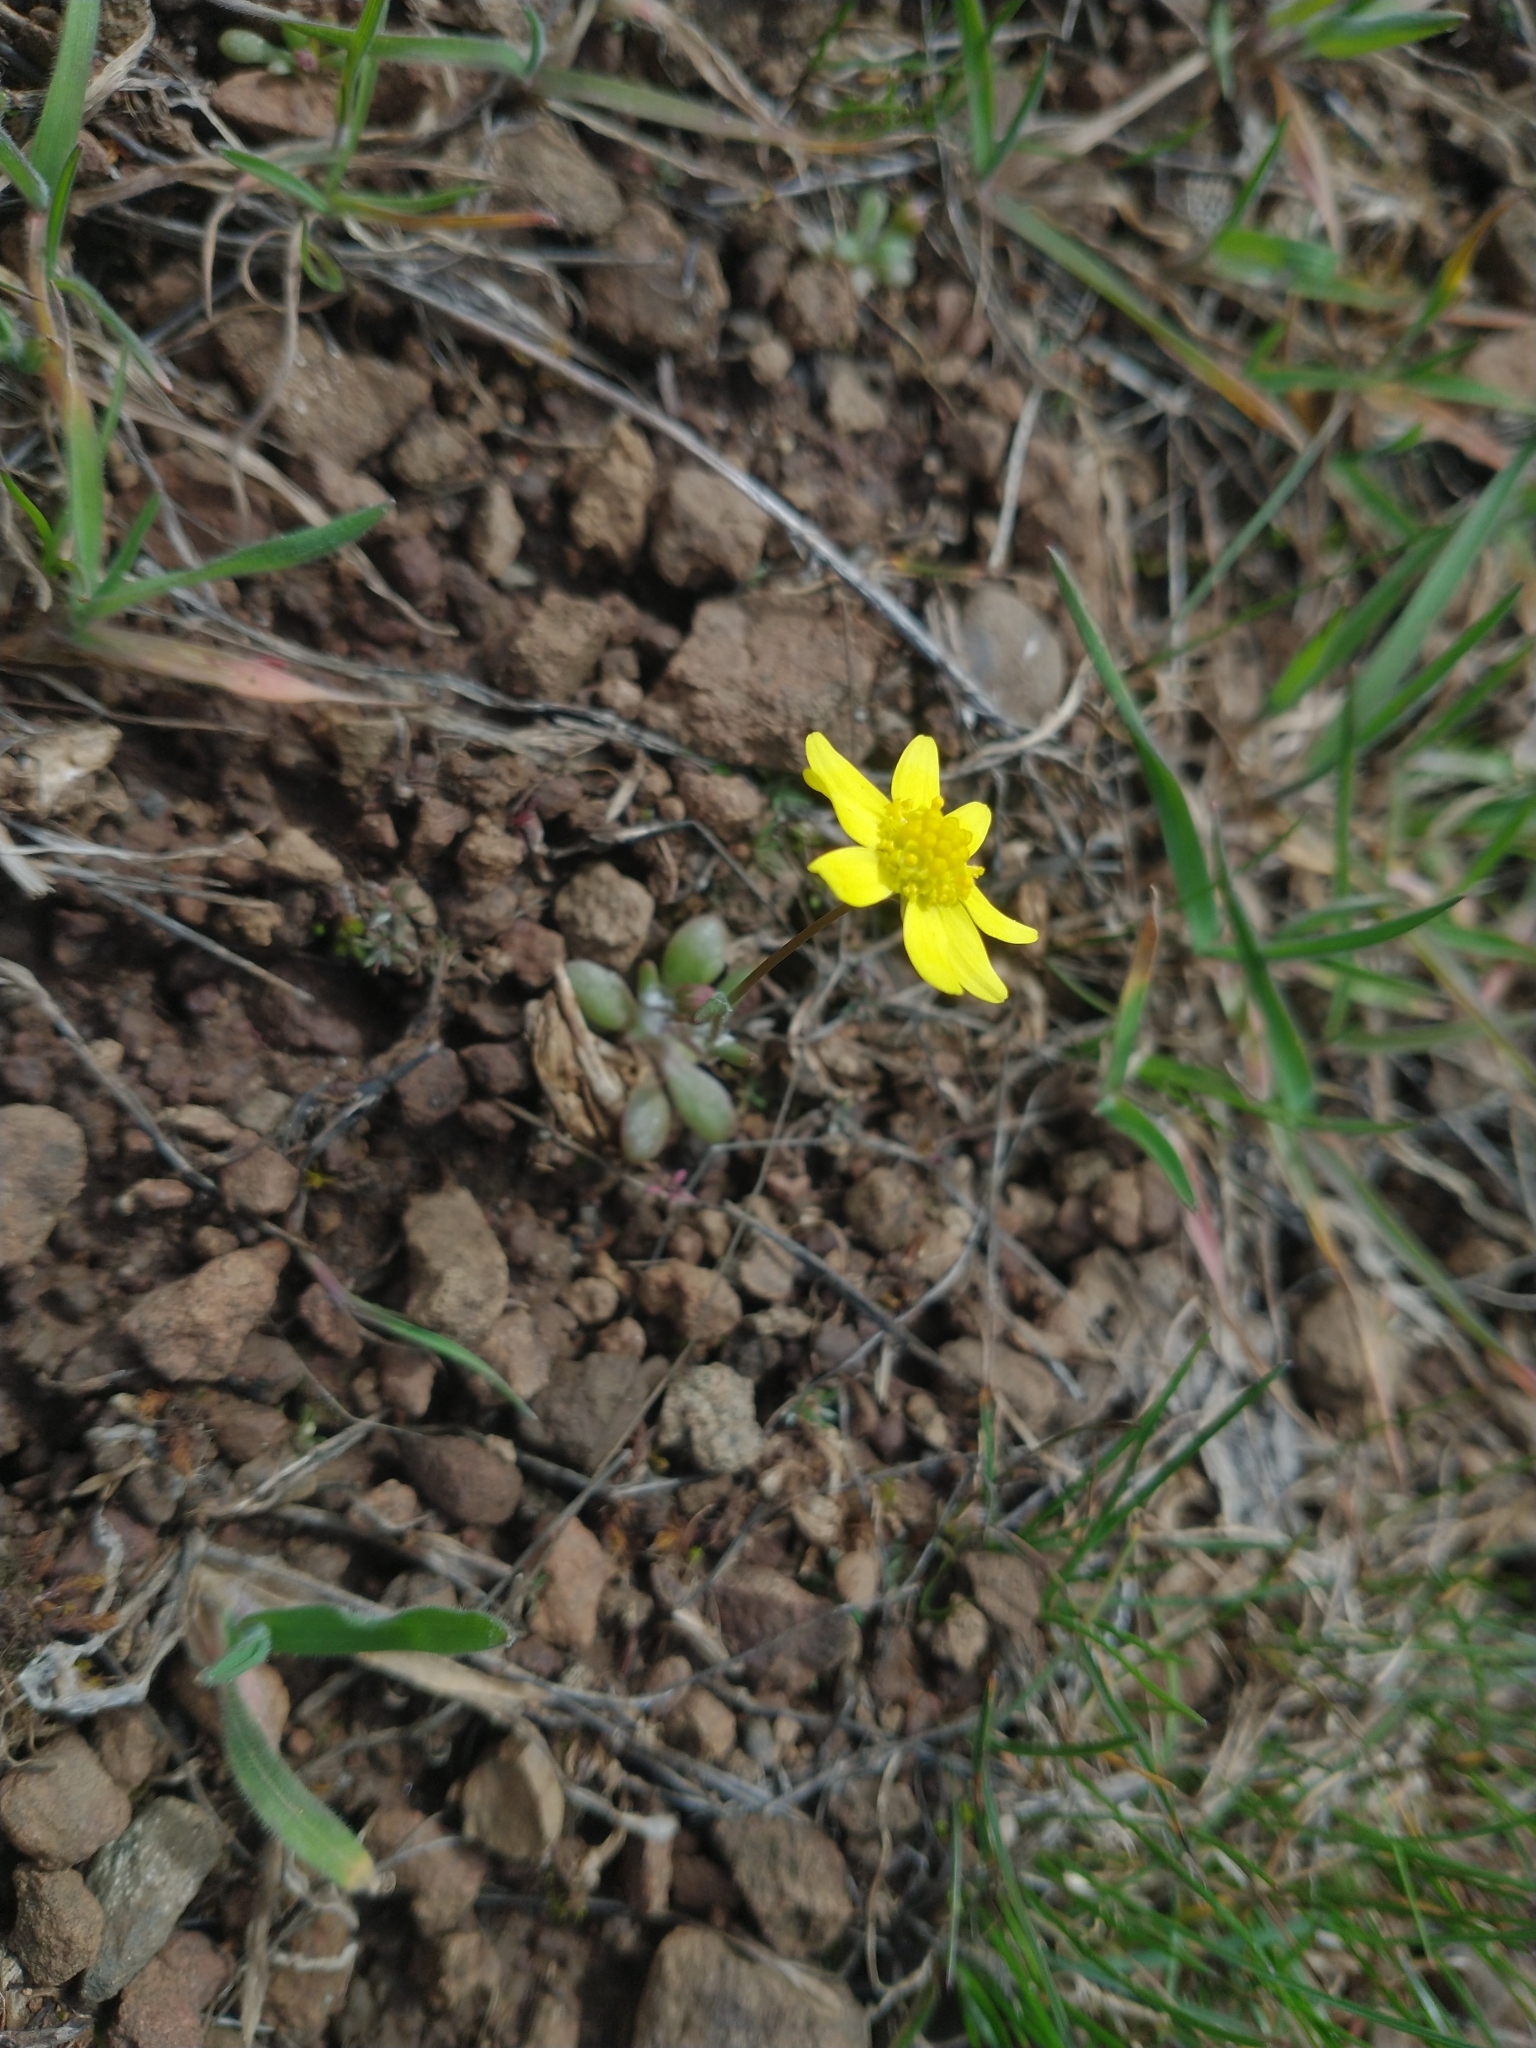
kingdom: Plantae
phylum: Tracheophyta
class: Magnoliopsida
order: Asterales
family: Asteraceae
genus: Crocidium
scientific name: Crocidium multicaule
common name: Common spring gold
